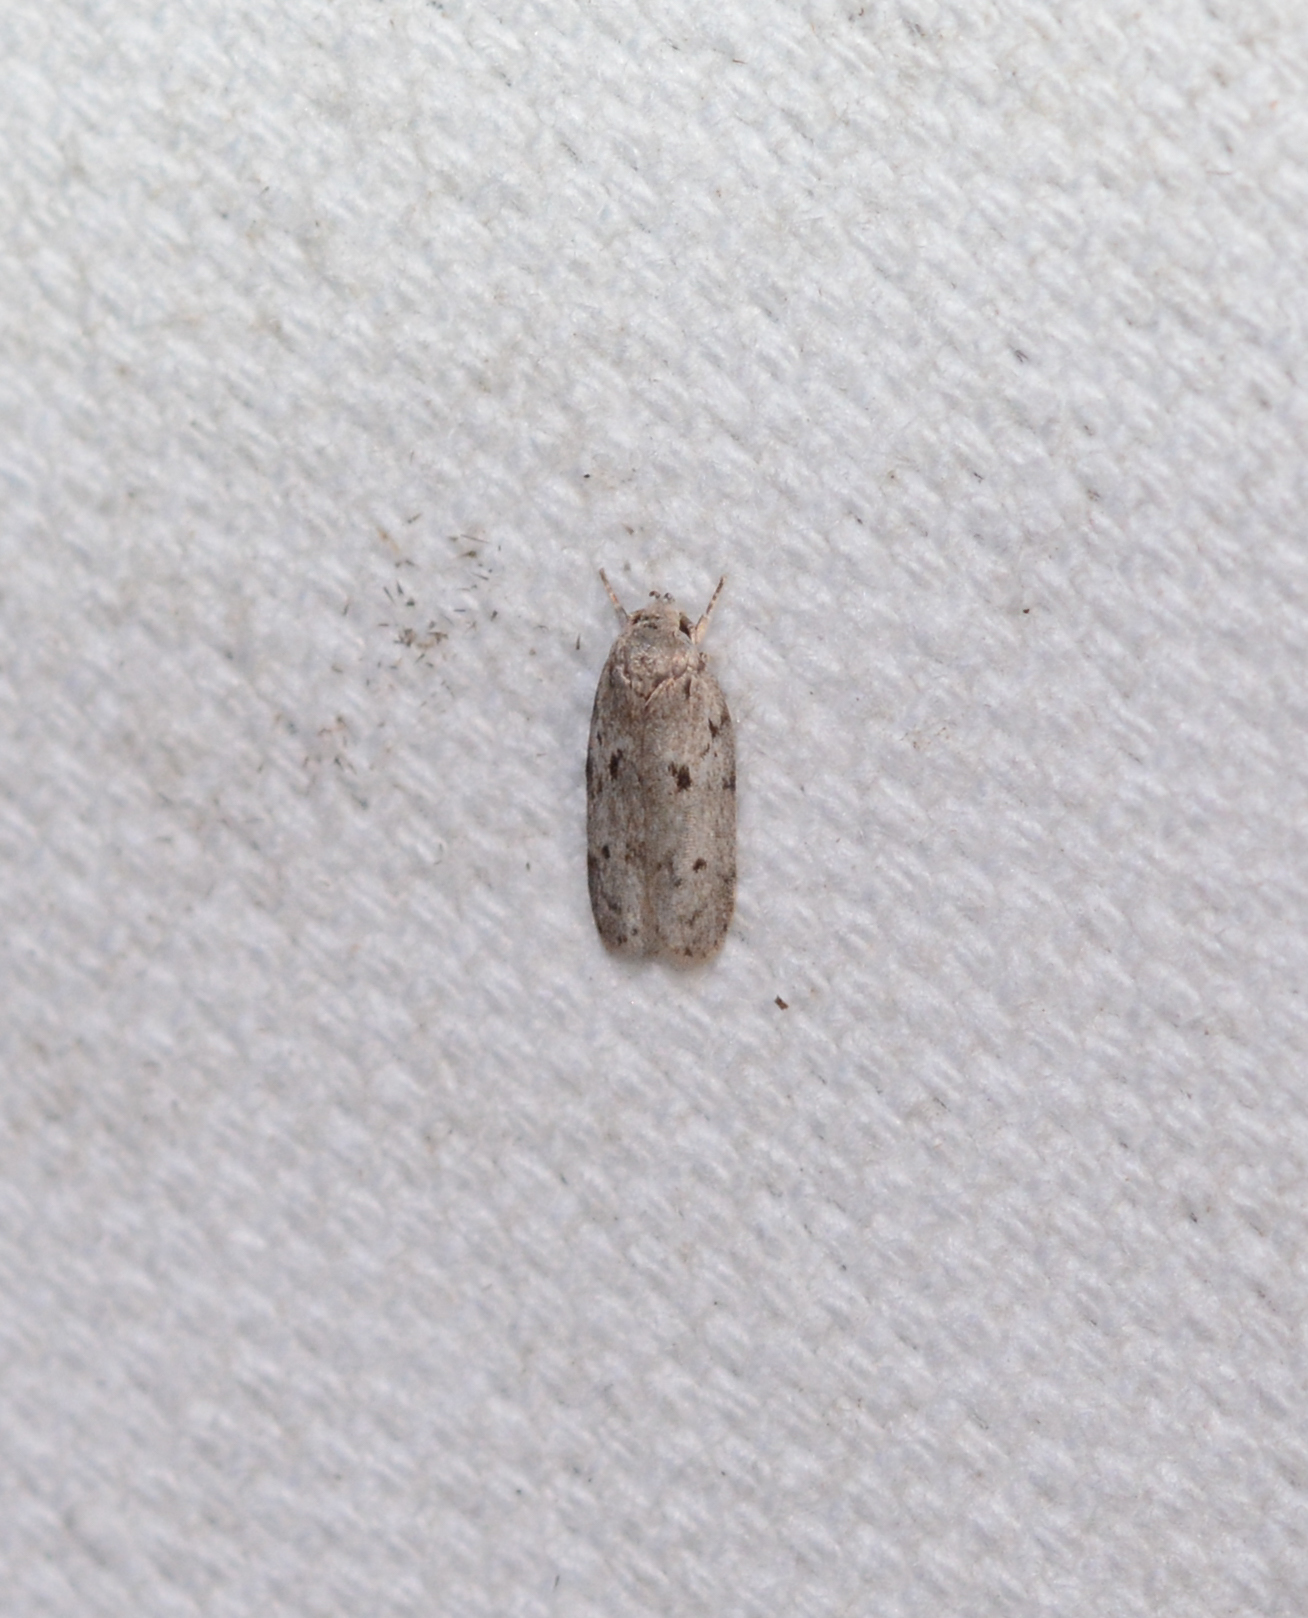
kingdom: Animalia
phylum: Arthropoda
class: Insecta
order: Lepidoptera
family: Depressariidae
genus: Antaeotricha
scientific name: Antaeotricha humilis
